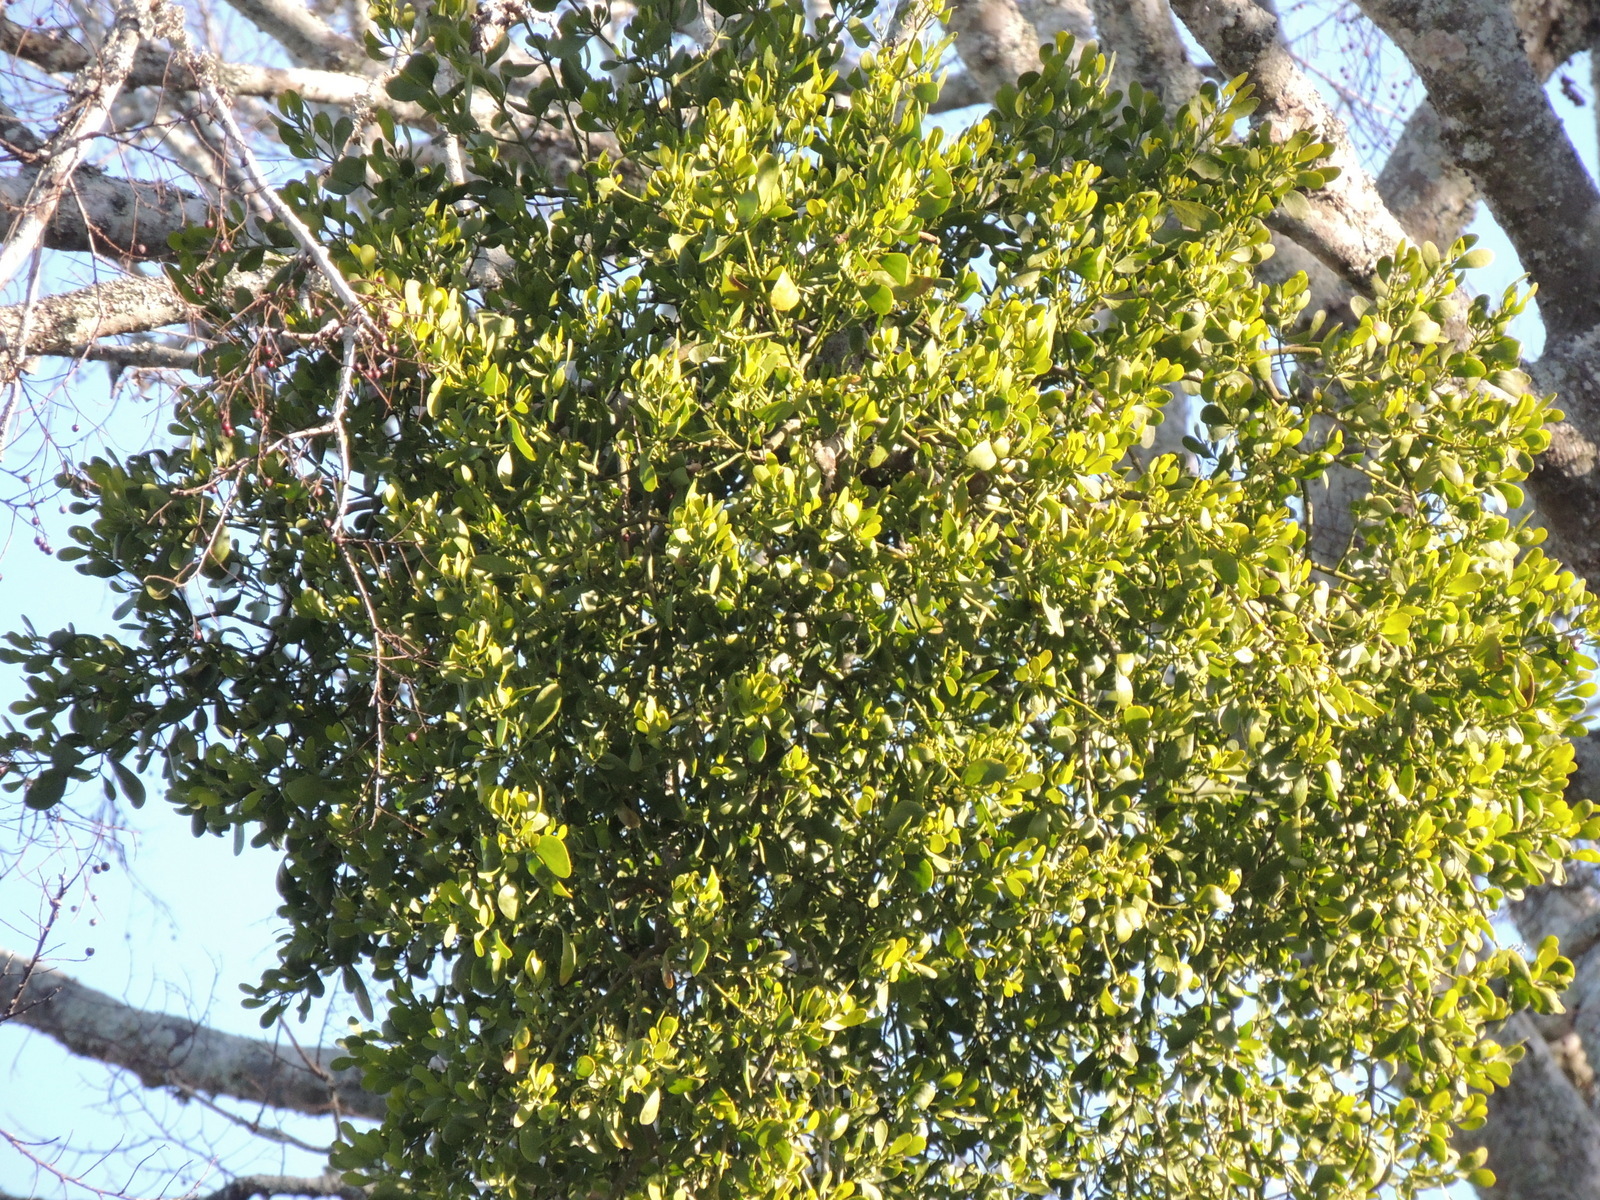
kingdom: Plantae
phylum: Tracheophyta
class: Magnoliopsida
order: Santalales
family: Viscaceae
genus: Phoradendron
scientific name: Phoradendron leucarpum
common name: Pacific mistletoe
